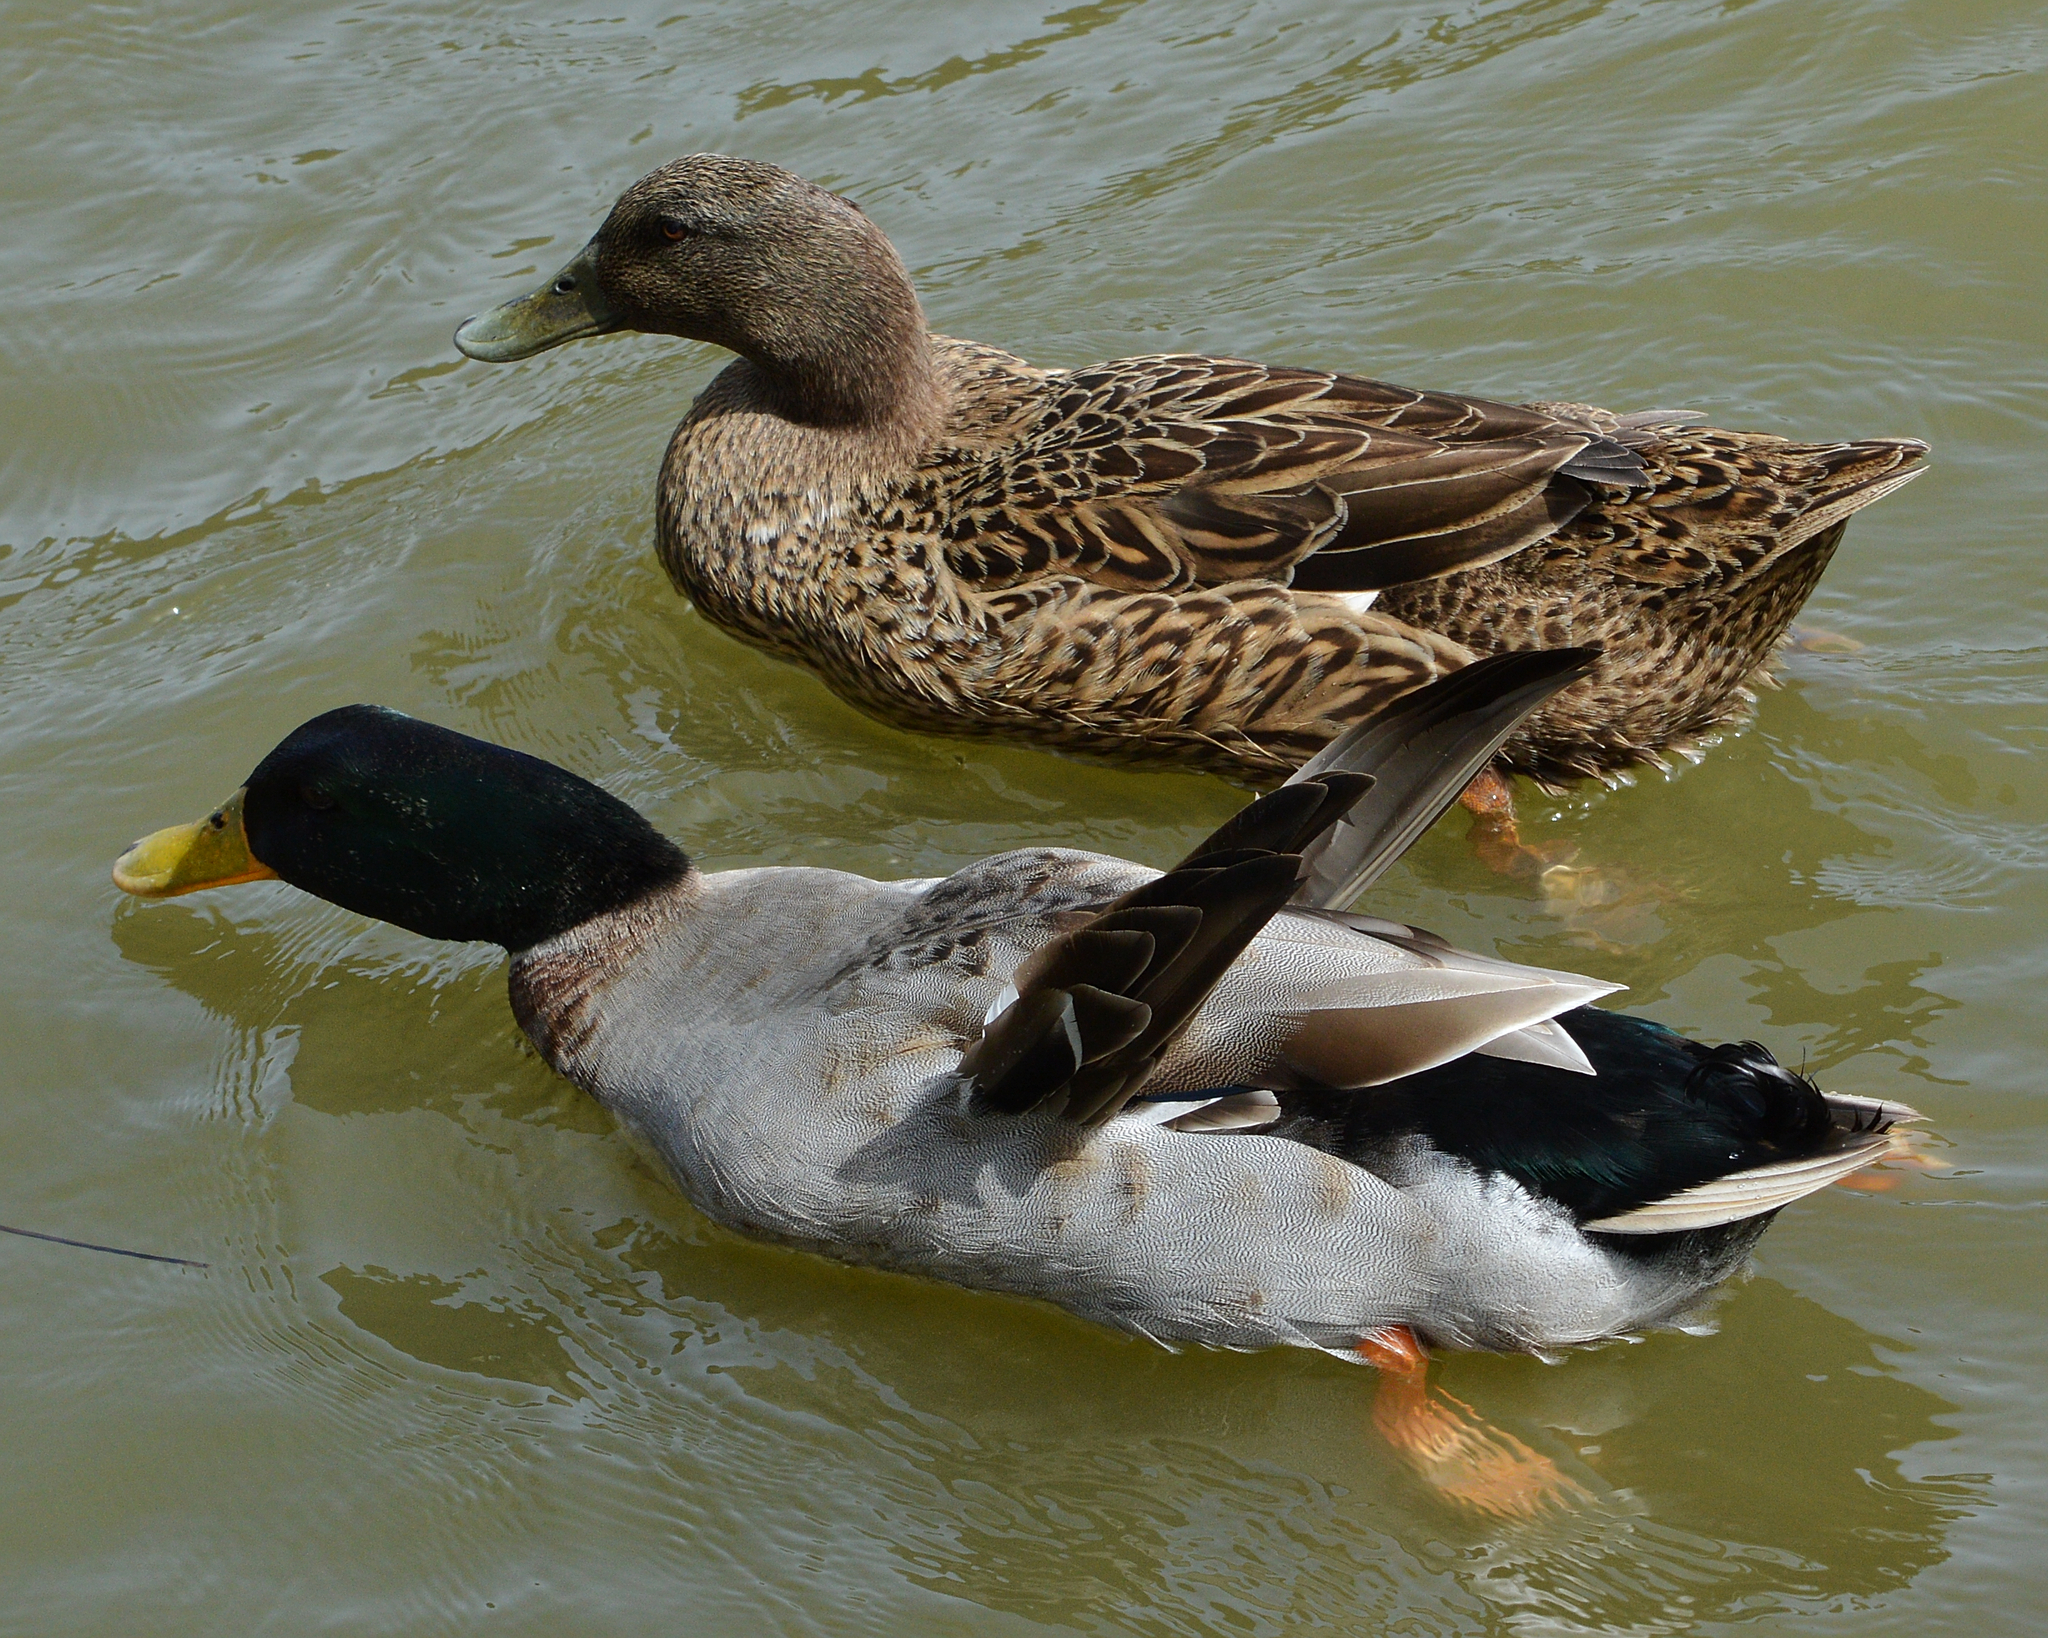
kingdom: Animalia
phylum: Chordata
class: Aves
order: Anseriformes
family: Anatidae
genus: Anas
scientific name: Anas platyrhynchos
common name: Mallard
